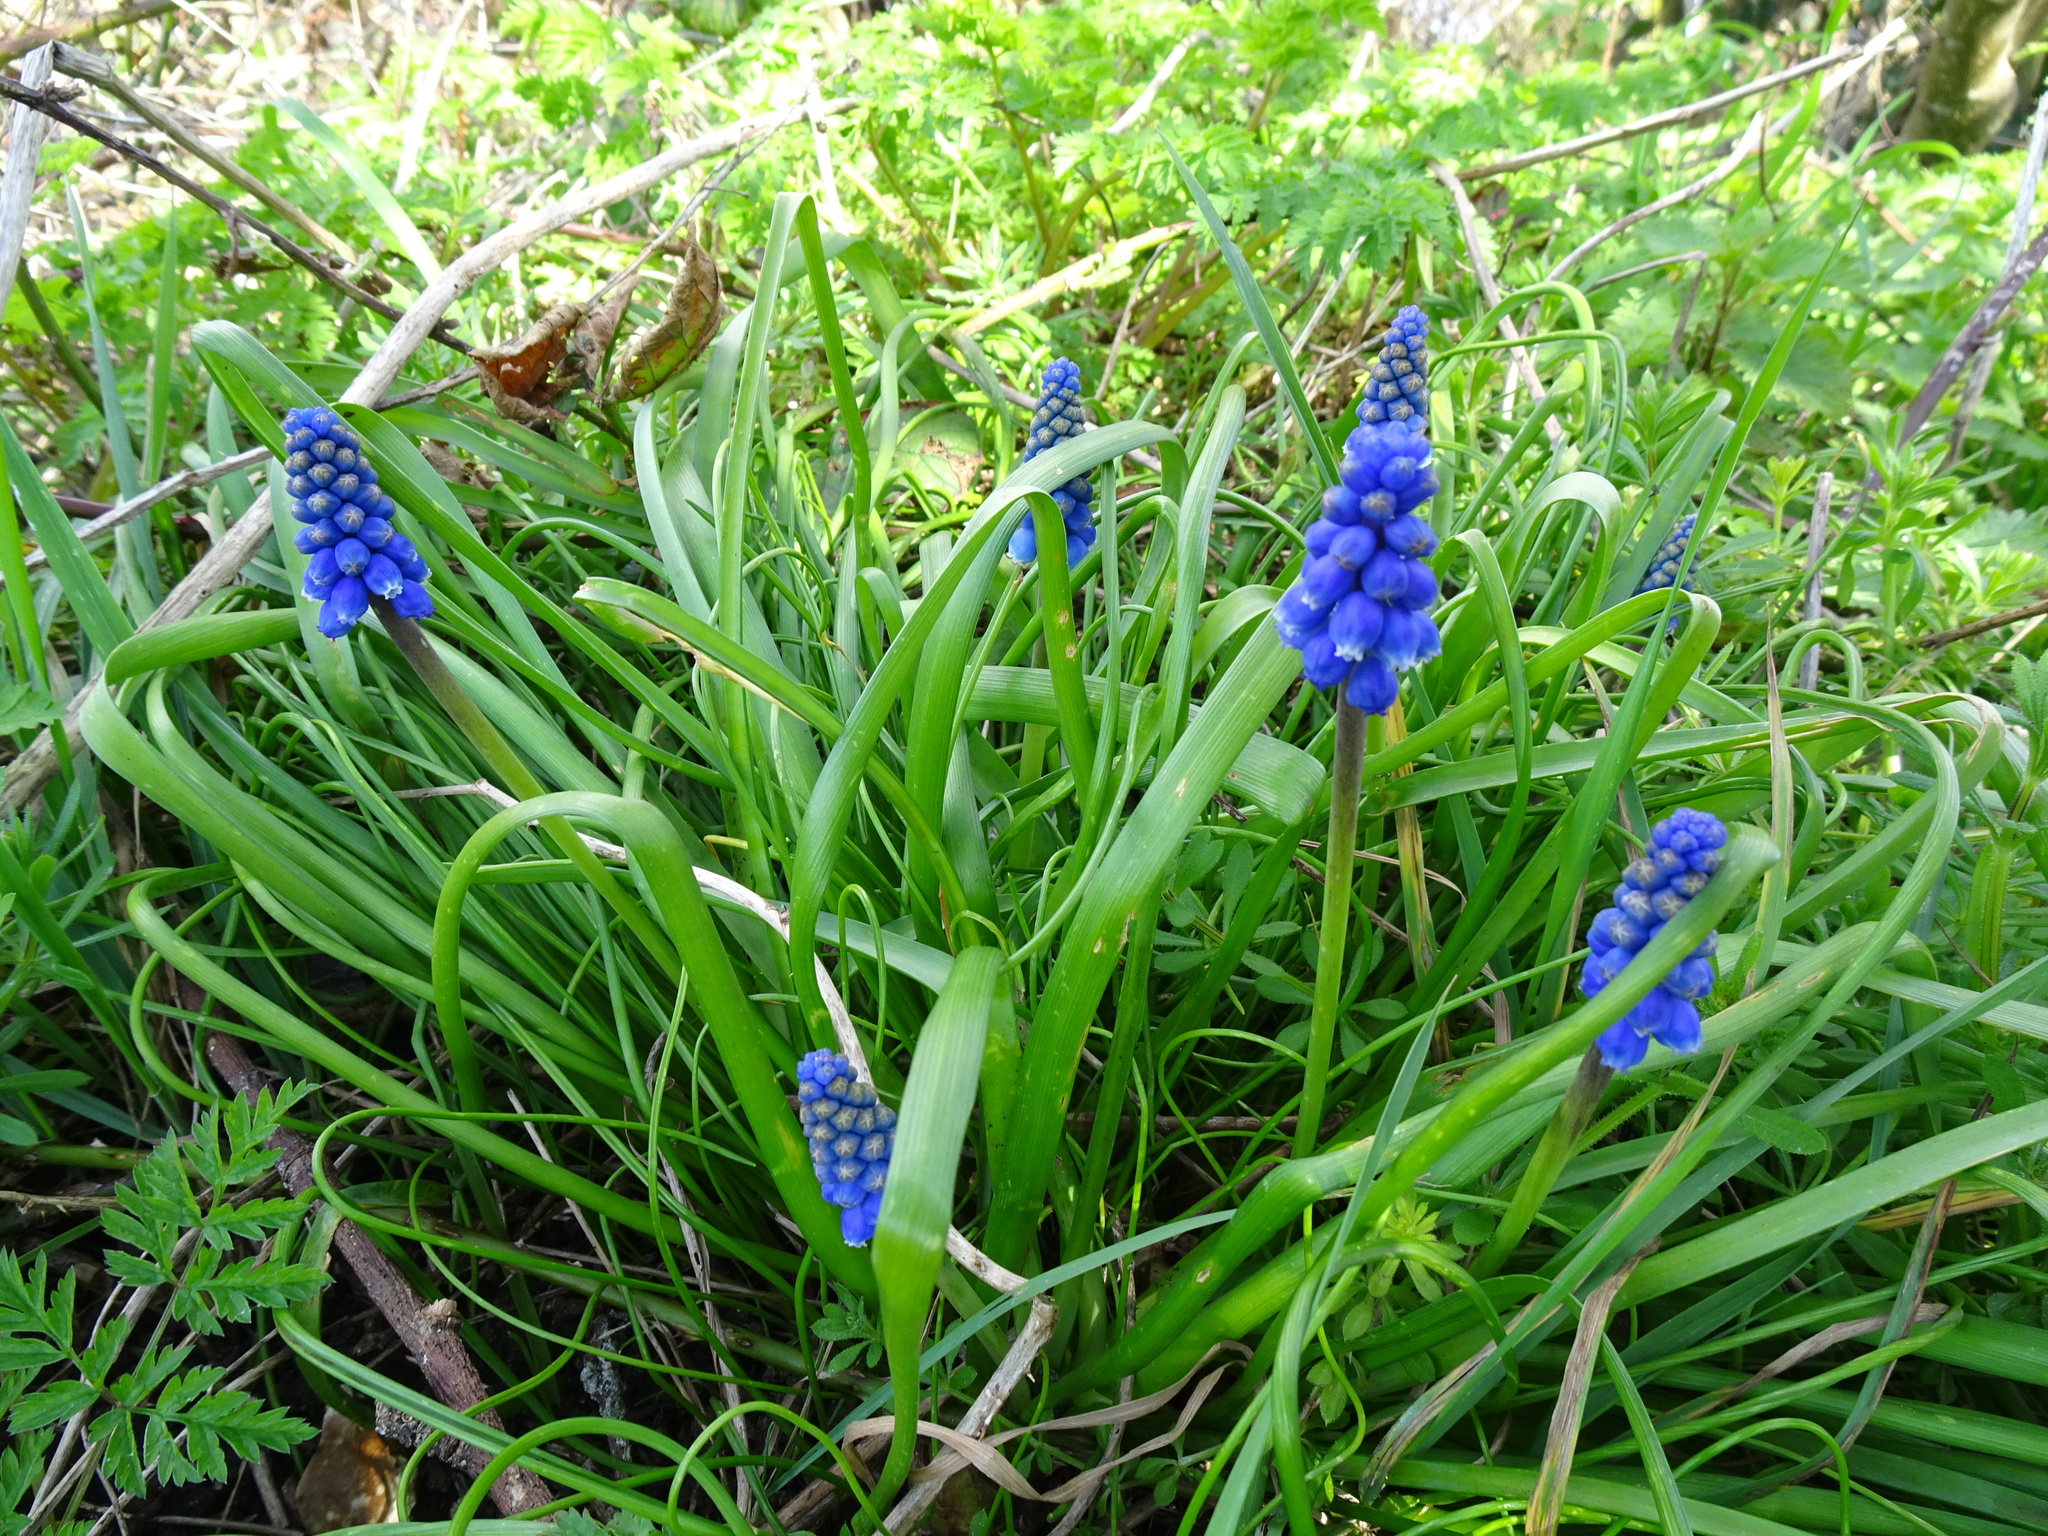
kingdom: Plantae
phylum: Tracheophyta
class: Liliopsida
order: Asparagales
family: Asparagaceae
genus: Muscari
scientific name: Muscari armeniacum
